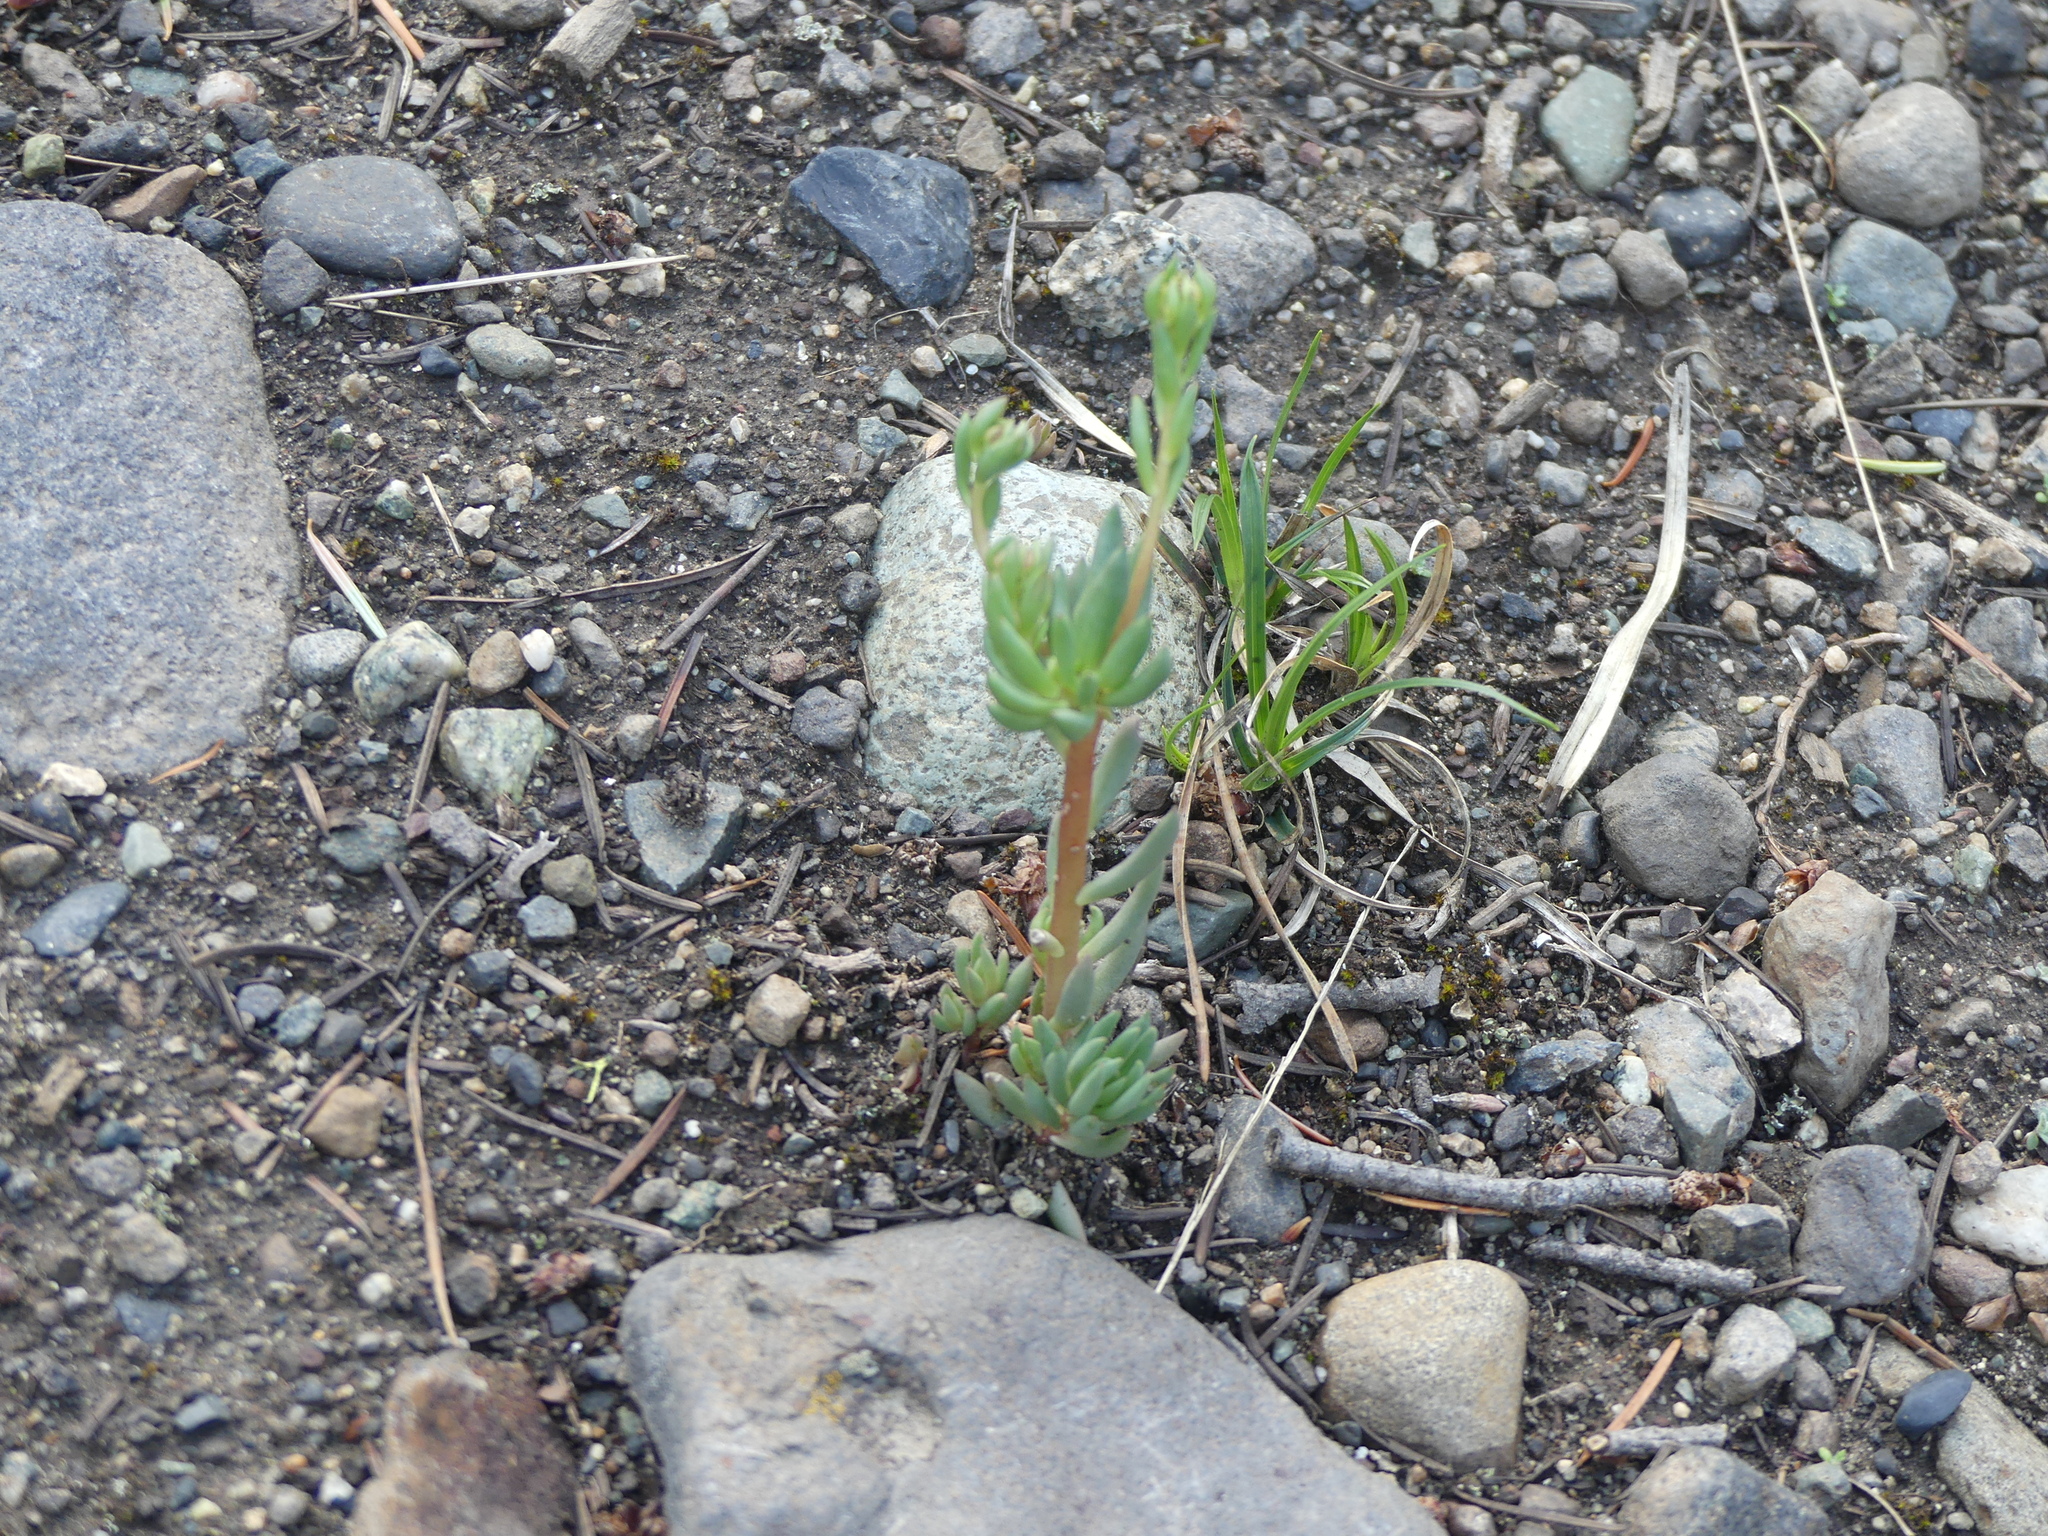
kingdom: Plantae
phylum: Tracheophyta
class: Magnoliopsida
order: Saxifragales
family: Crassulaceae
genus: Sedum
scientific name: Sedum lanceolatum
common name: Common stonecrop
